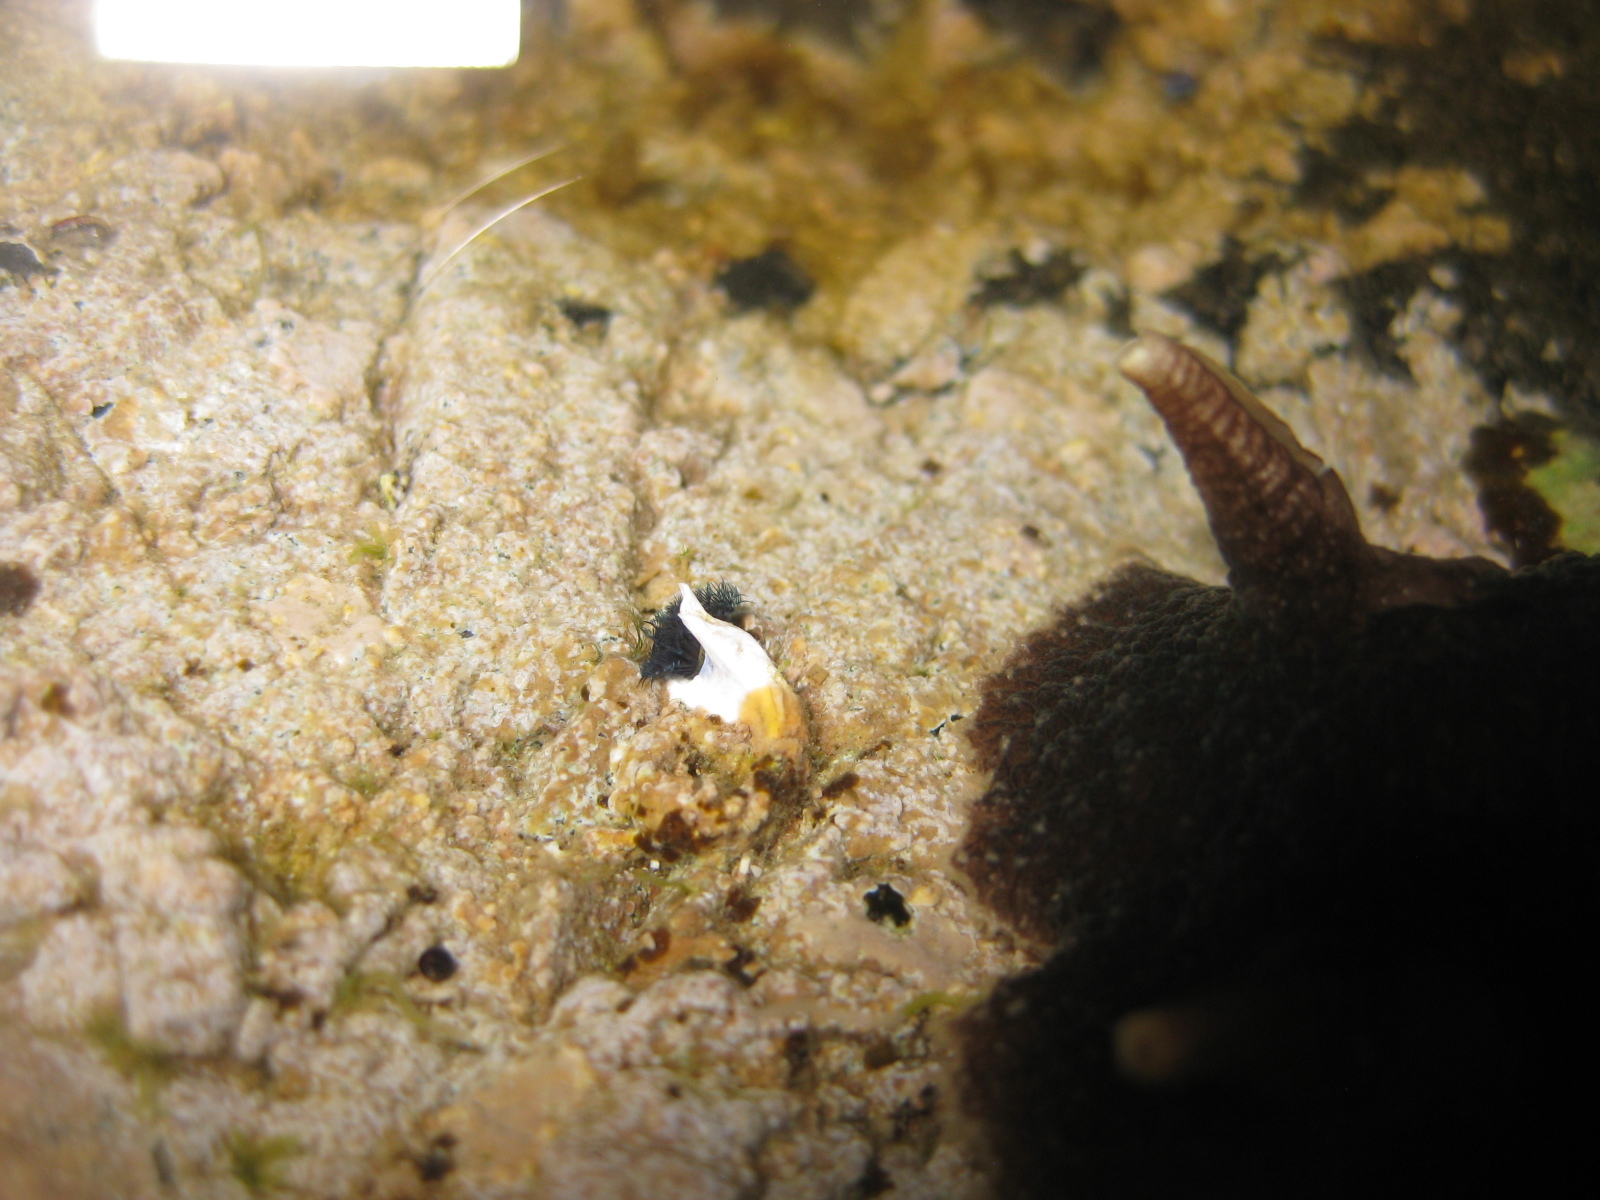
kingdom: Animalia
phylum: Annelida
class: Polychaeta
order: Sabellida
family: Serpulidae
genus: Spirobranchus
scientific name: Spirobranchus cariniferus
